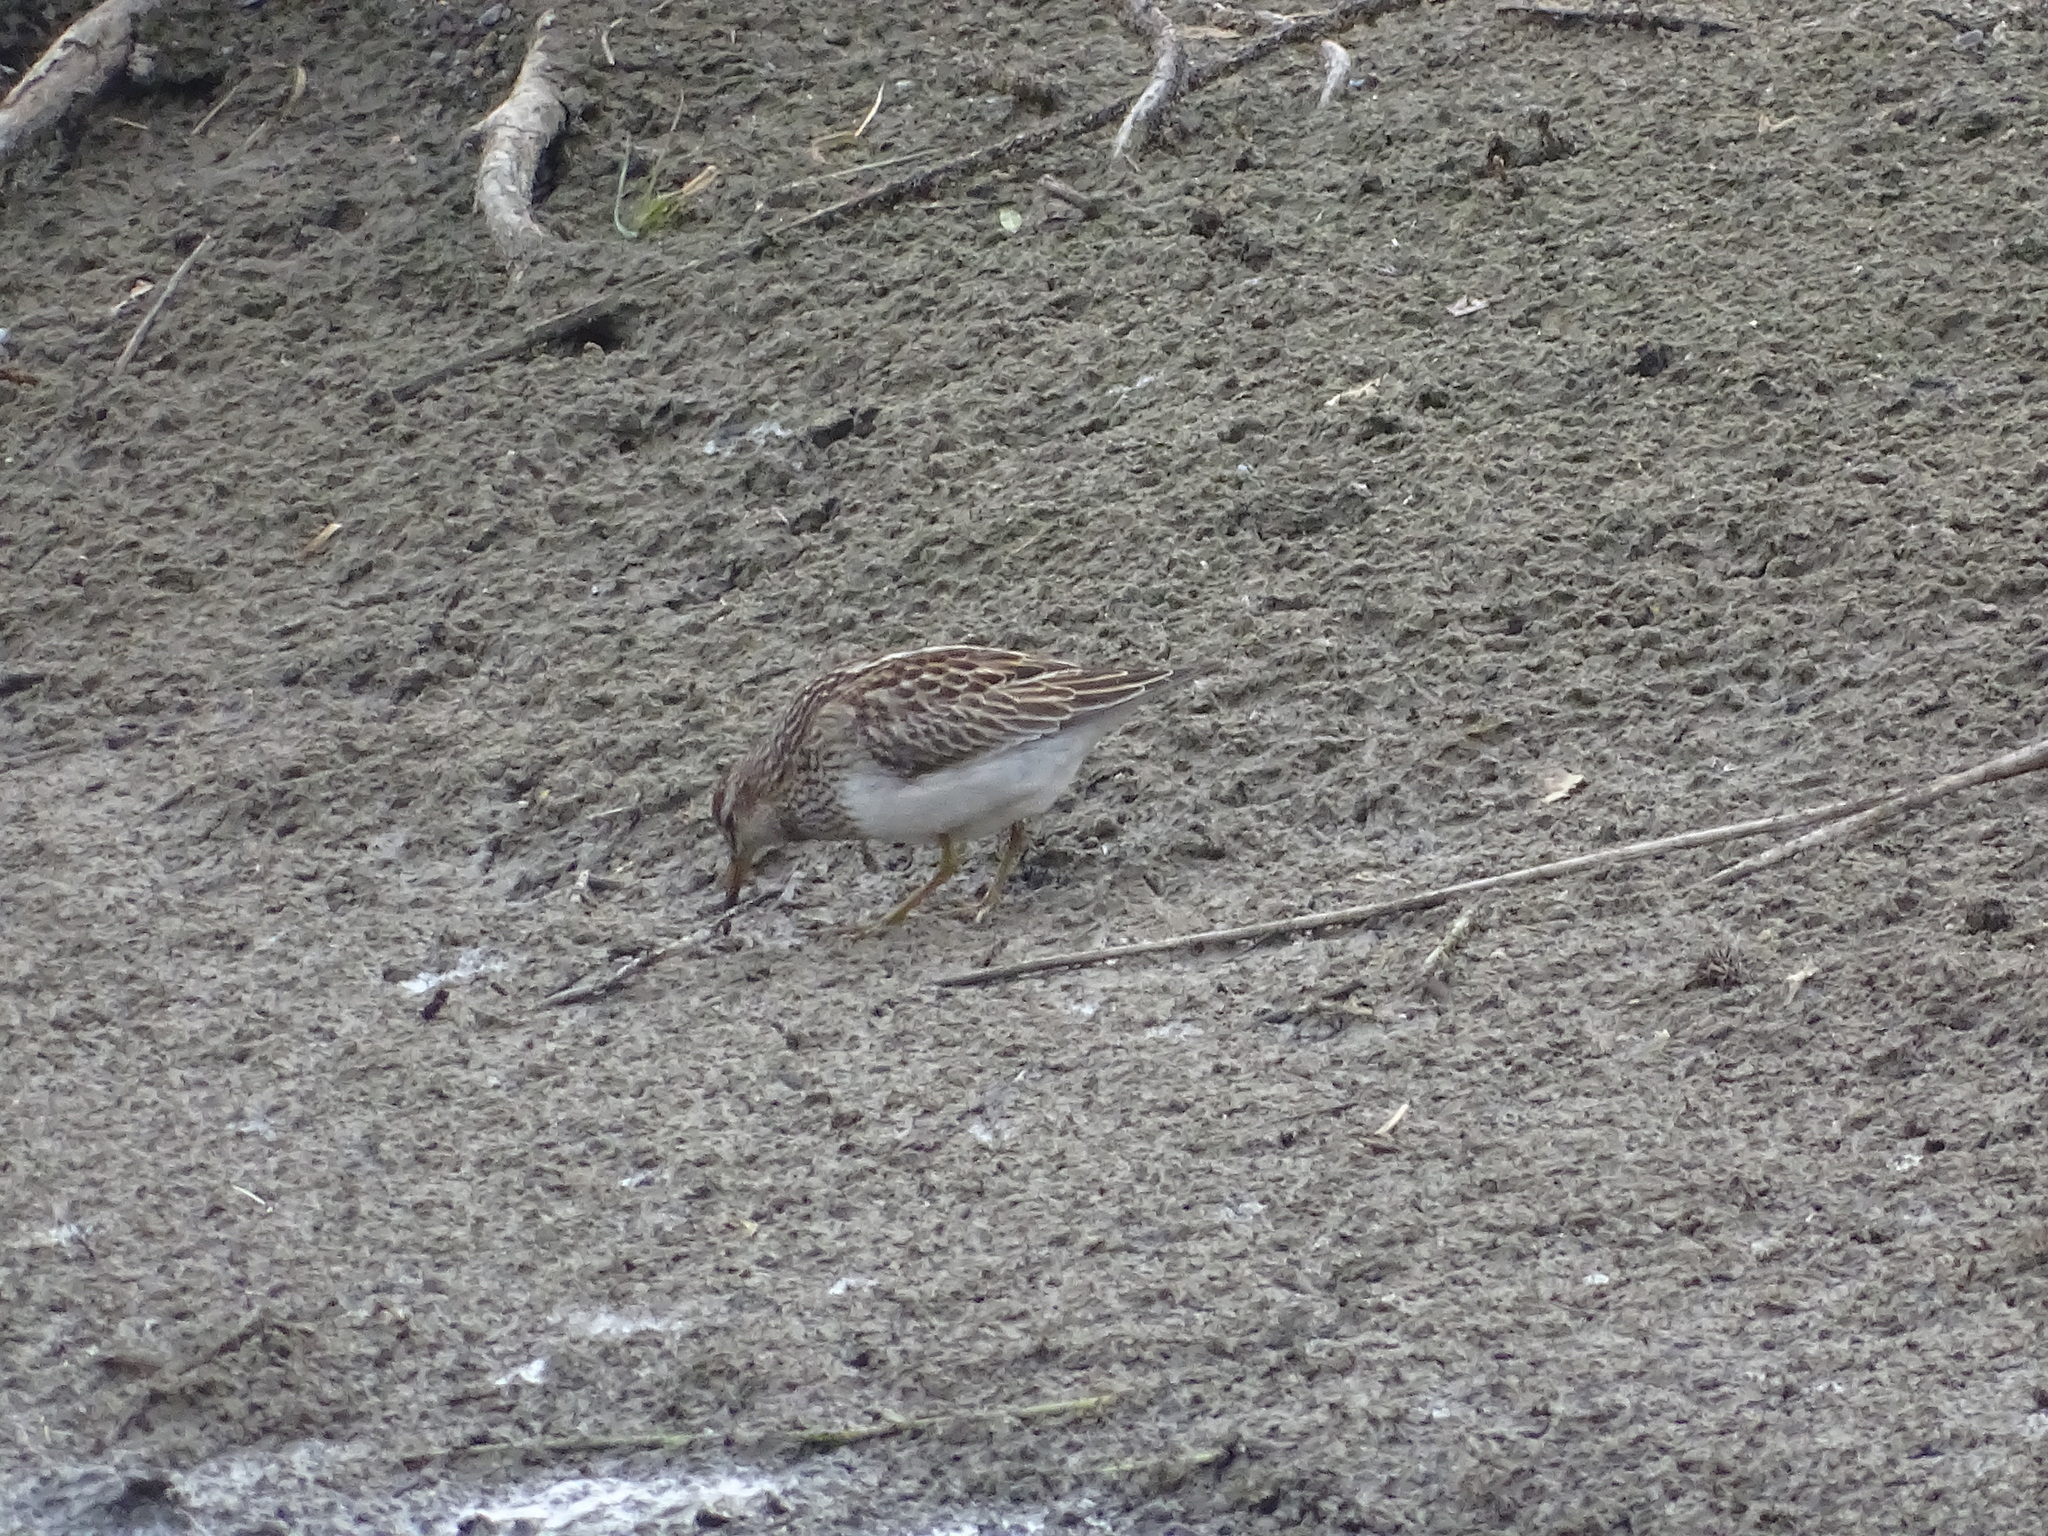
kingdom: Animalia
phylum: Chordata
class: Aves
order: Charadriiformes
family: Scolopacidae
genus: Calidris
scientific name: Calidris melanotos
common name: Pectoral sandpiper
